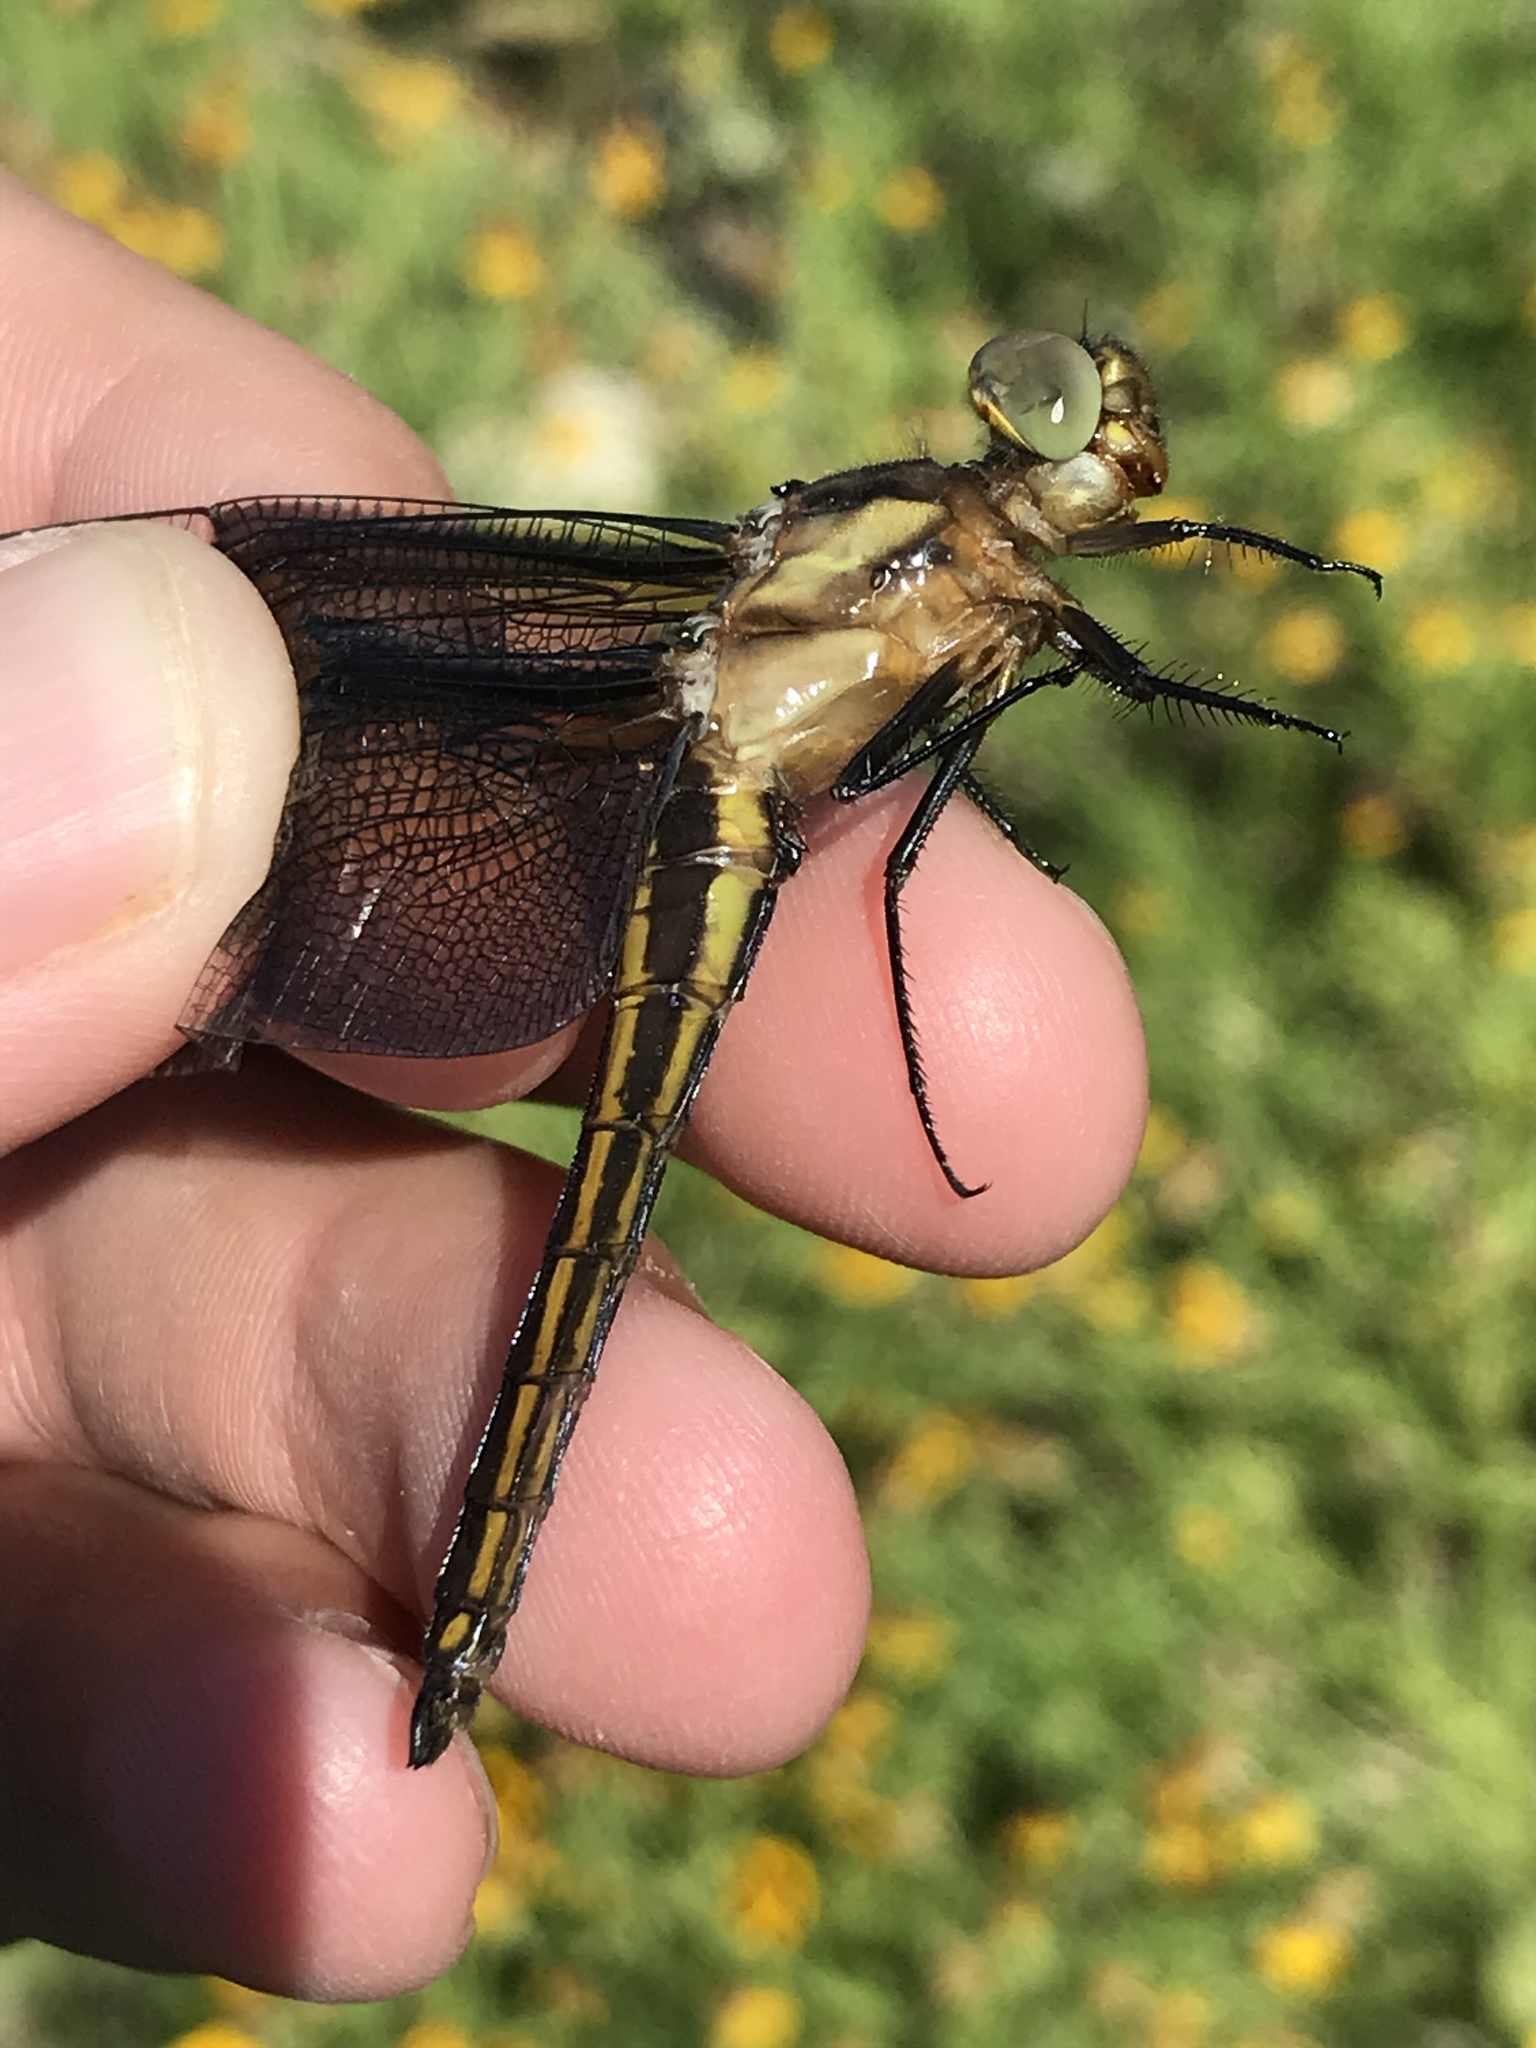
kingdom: Animalia
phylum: Arthropoda
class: Insecta
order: Odonata
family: Libellulidae
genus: Libellula
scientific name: Libellula luctuosa
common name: Widow skimmer
